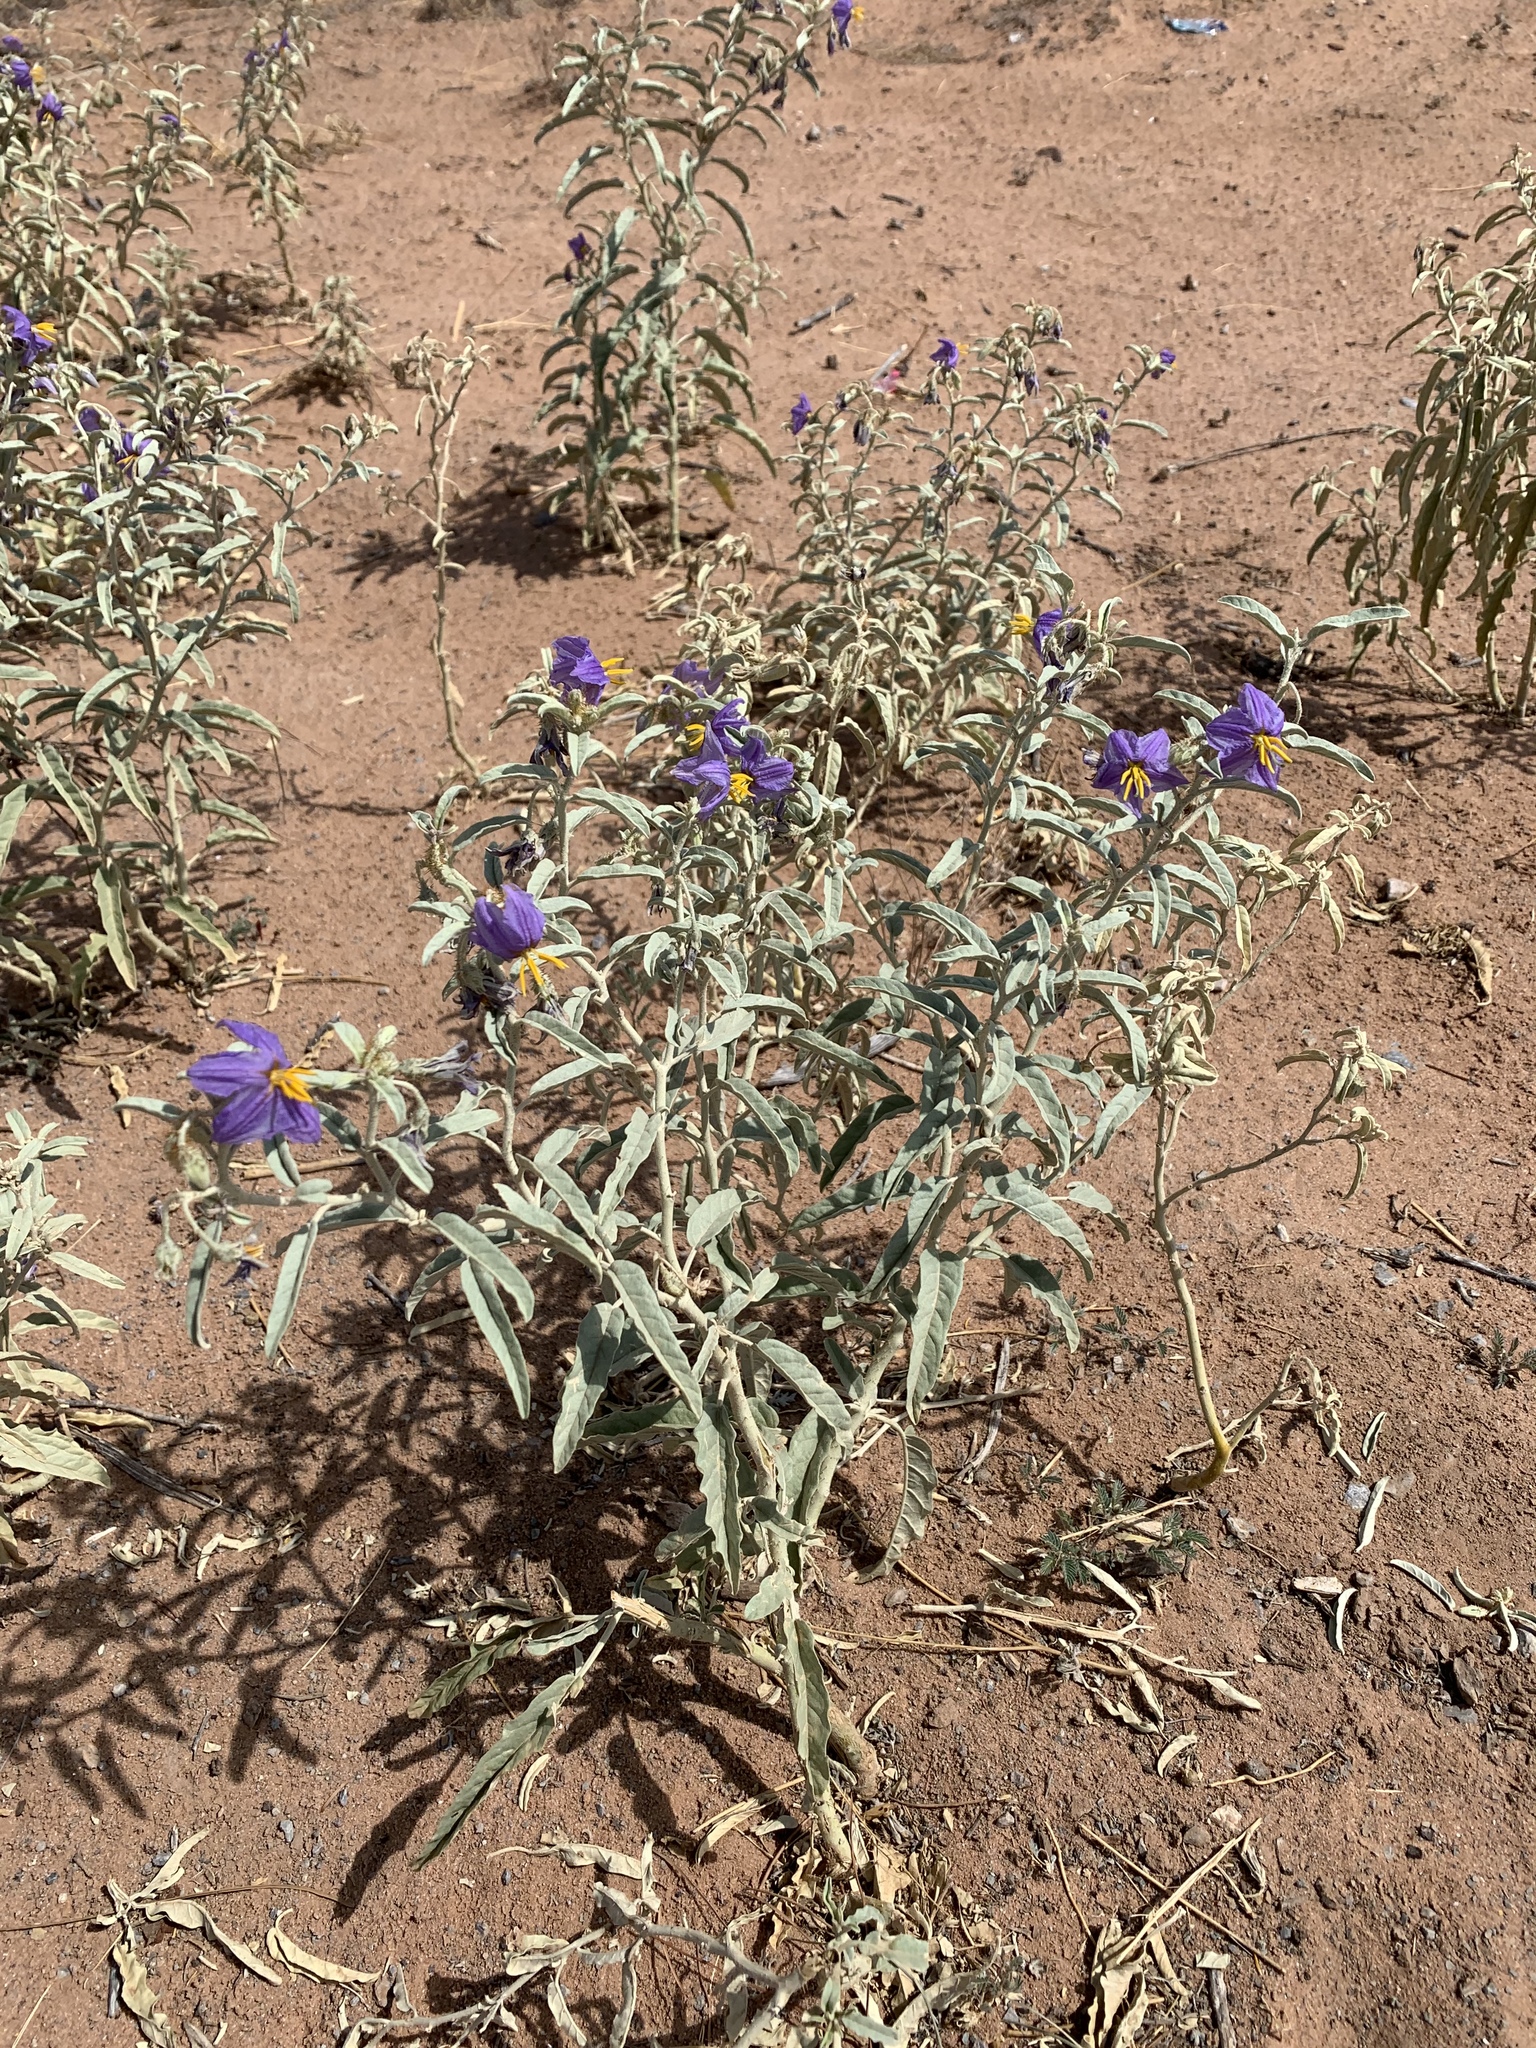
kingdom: Plantae
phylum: Tracheophyta
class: Magnoliopsida
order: Solanales
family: Solanaceae
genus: Solanum
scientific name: Solanum elaeagnifolium
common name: Silverleaf nightshade
